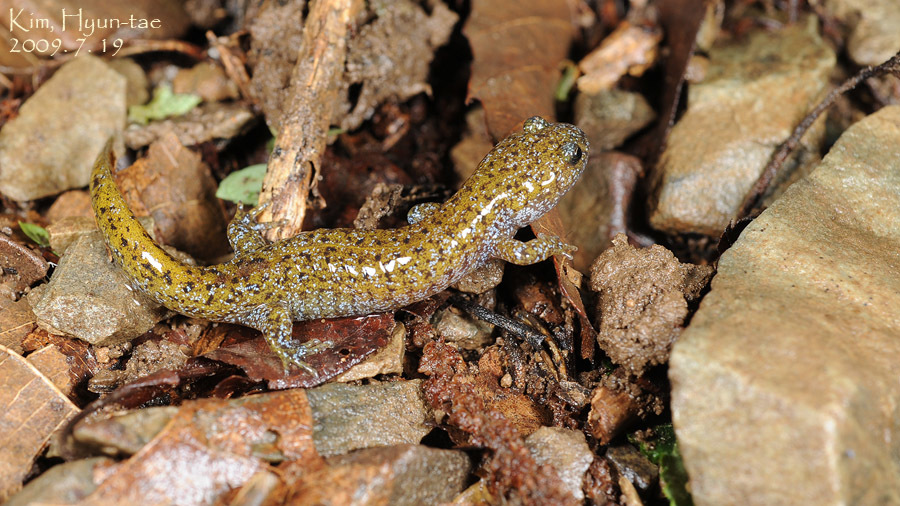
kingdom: Animalia
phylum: Chordata
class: Amphibia
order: Caudata
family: Hynobiidae
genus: Hynobius
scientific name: Hynobius leechii
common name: Gensan salamander
